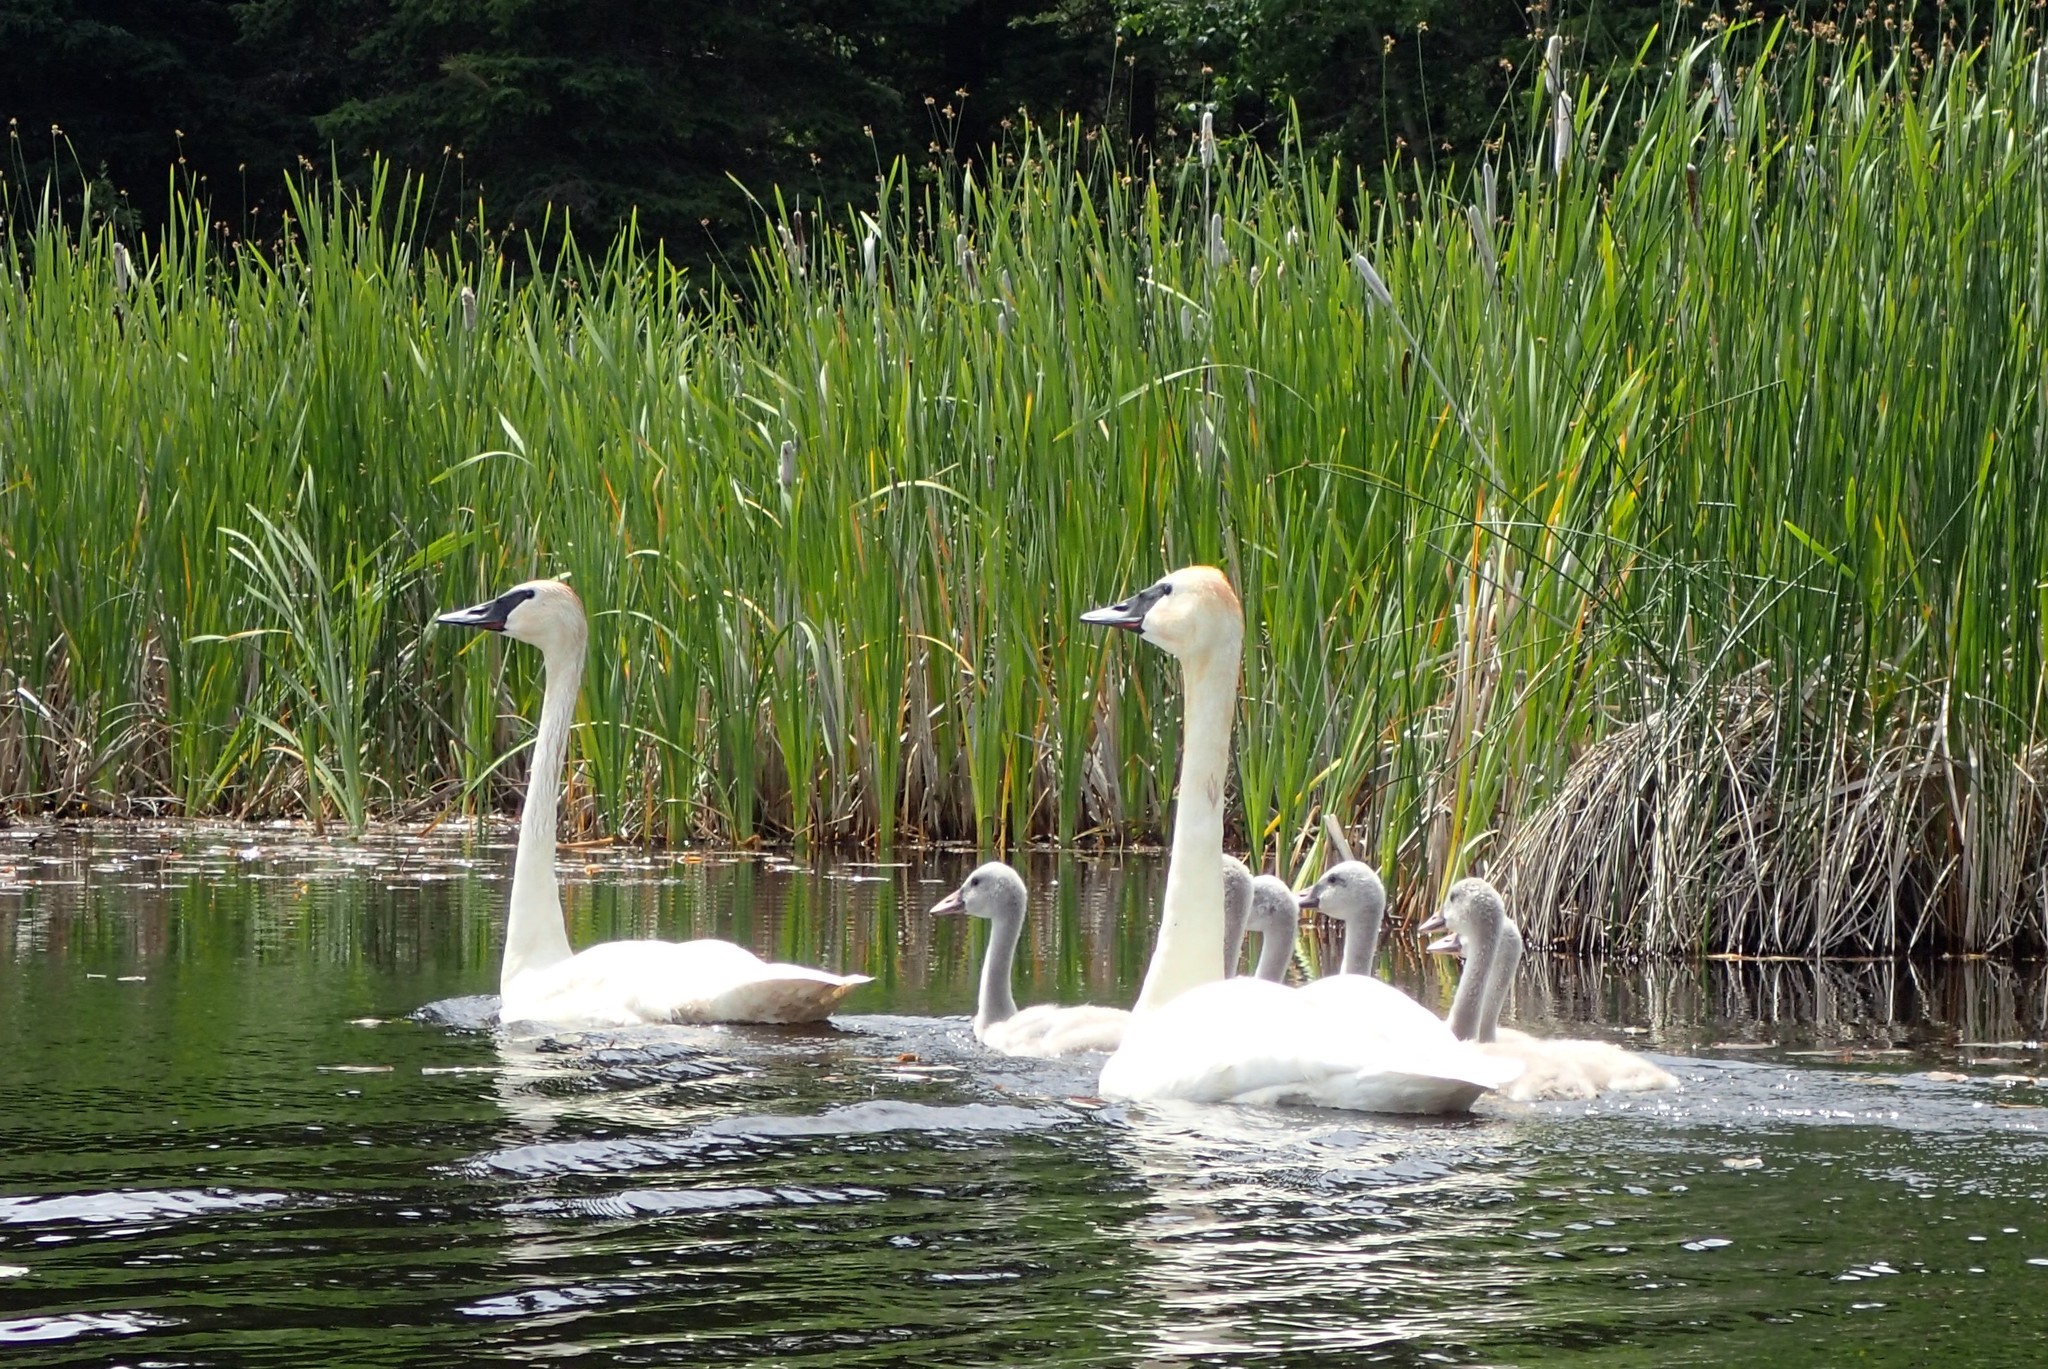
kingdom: Animalia
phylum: Chordata
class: Aves
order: Anseriformes
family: Anatidae
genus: Cygnus
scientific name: Cygnus buccinator
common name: Trumpeter swan
